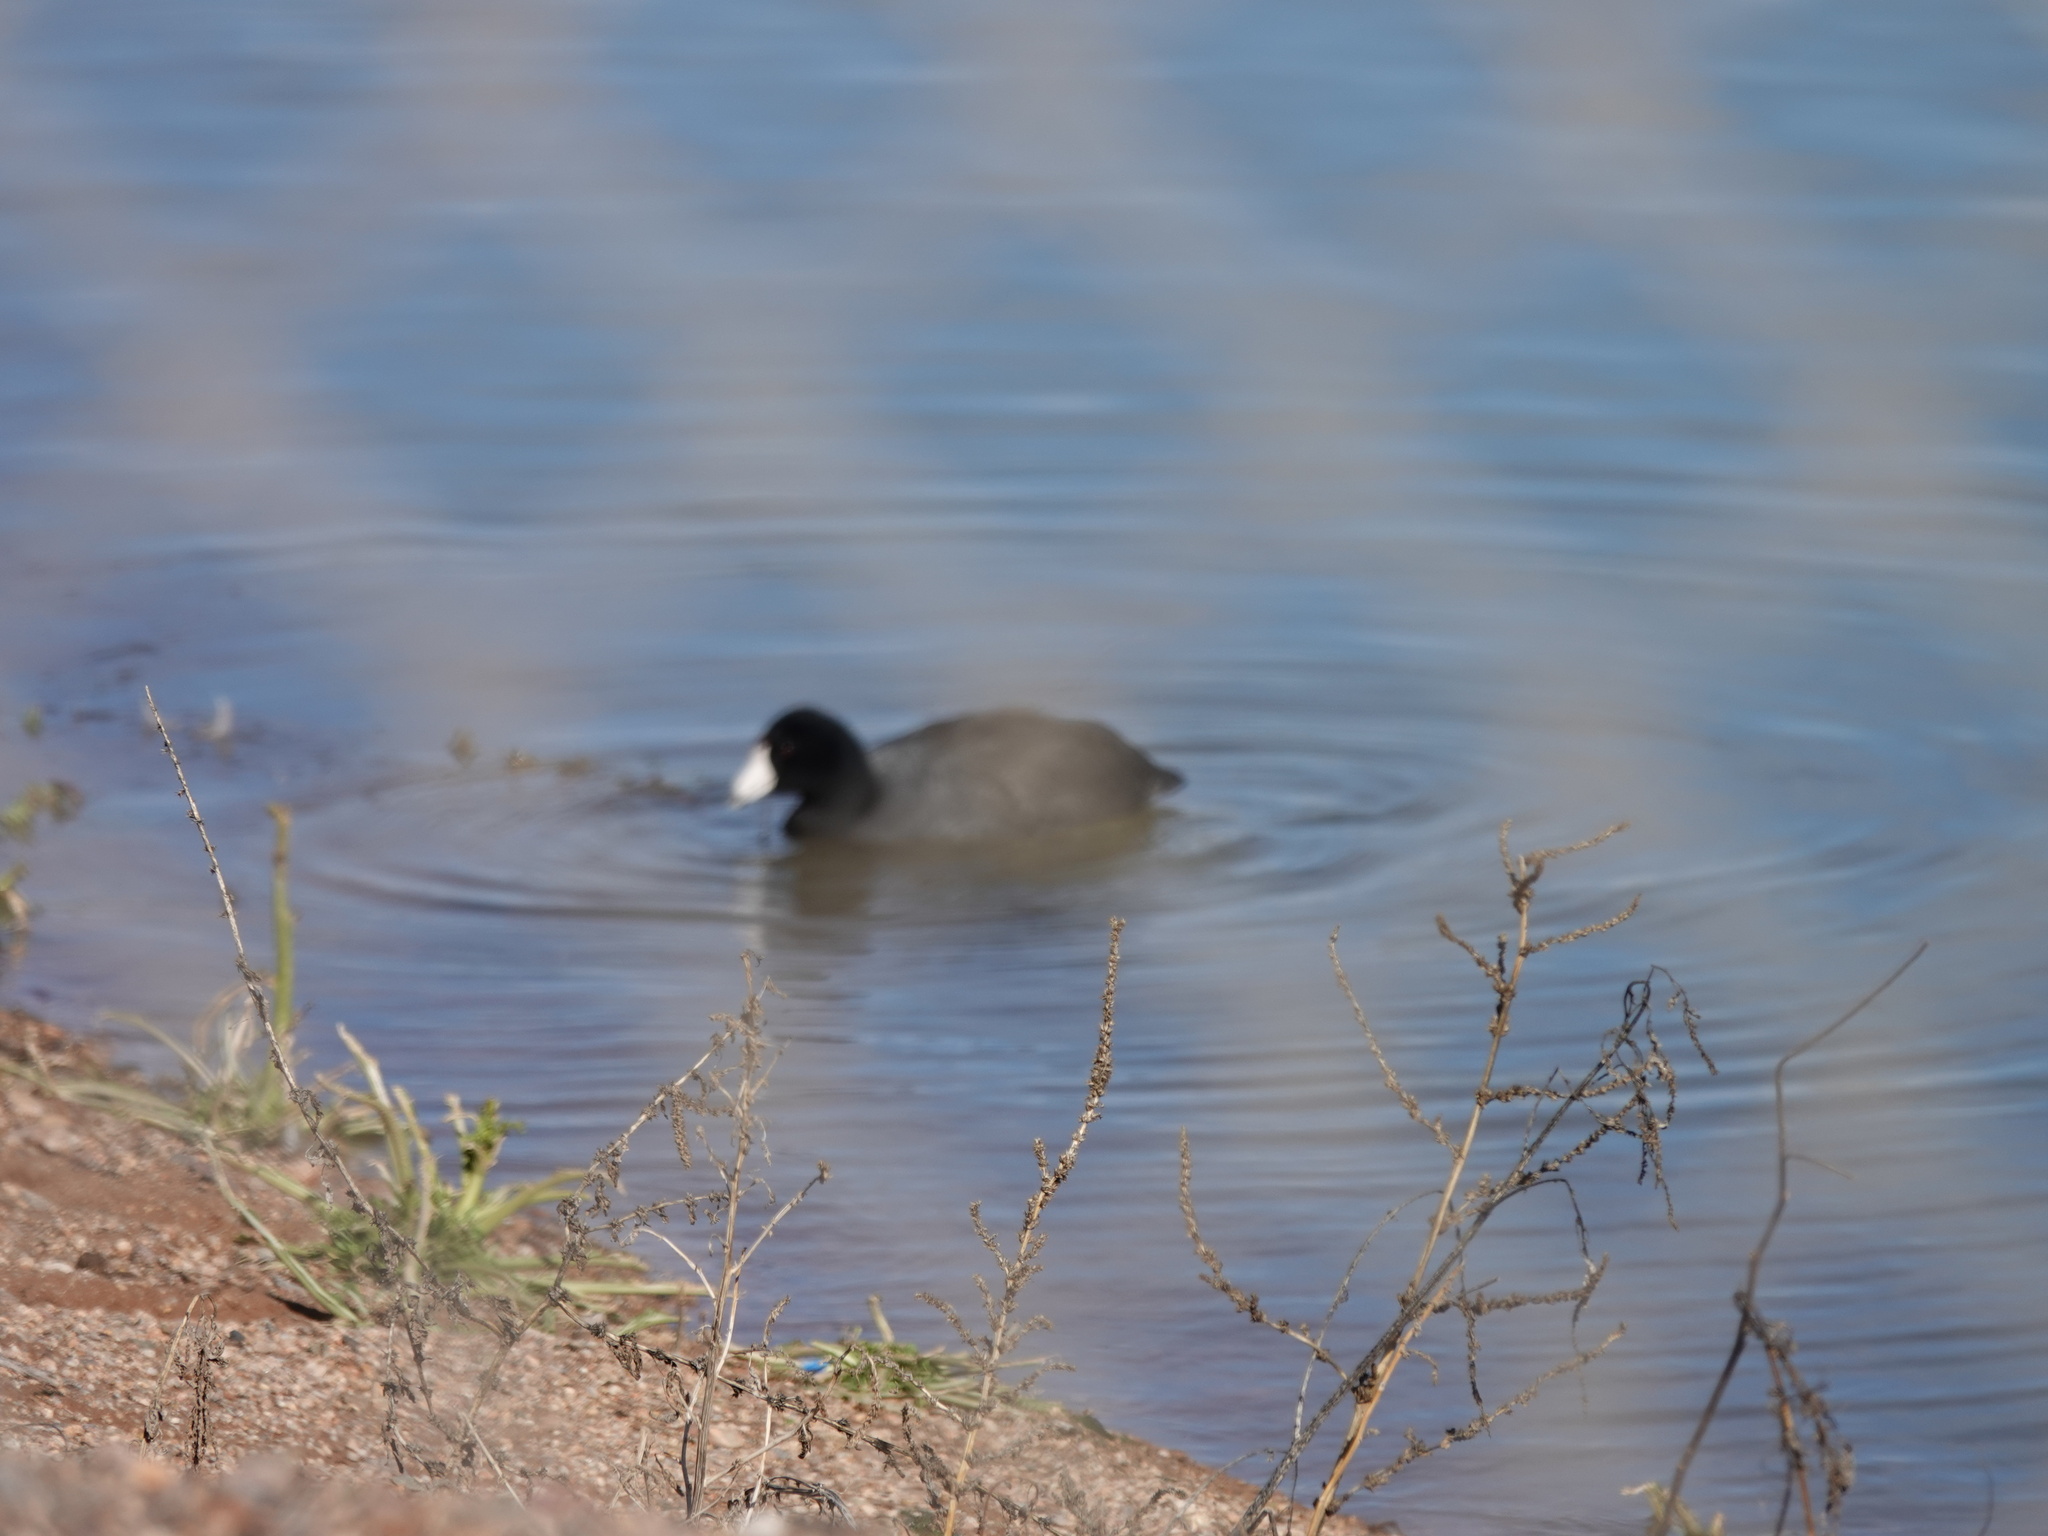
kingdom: Animalia
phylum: Chordata
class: Aves
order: Gruiformes
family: Rallidae
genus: Fulica
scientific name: Fulica americana
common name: American coot
